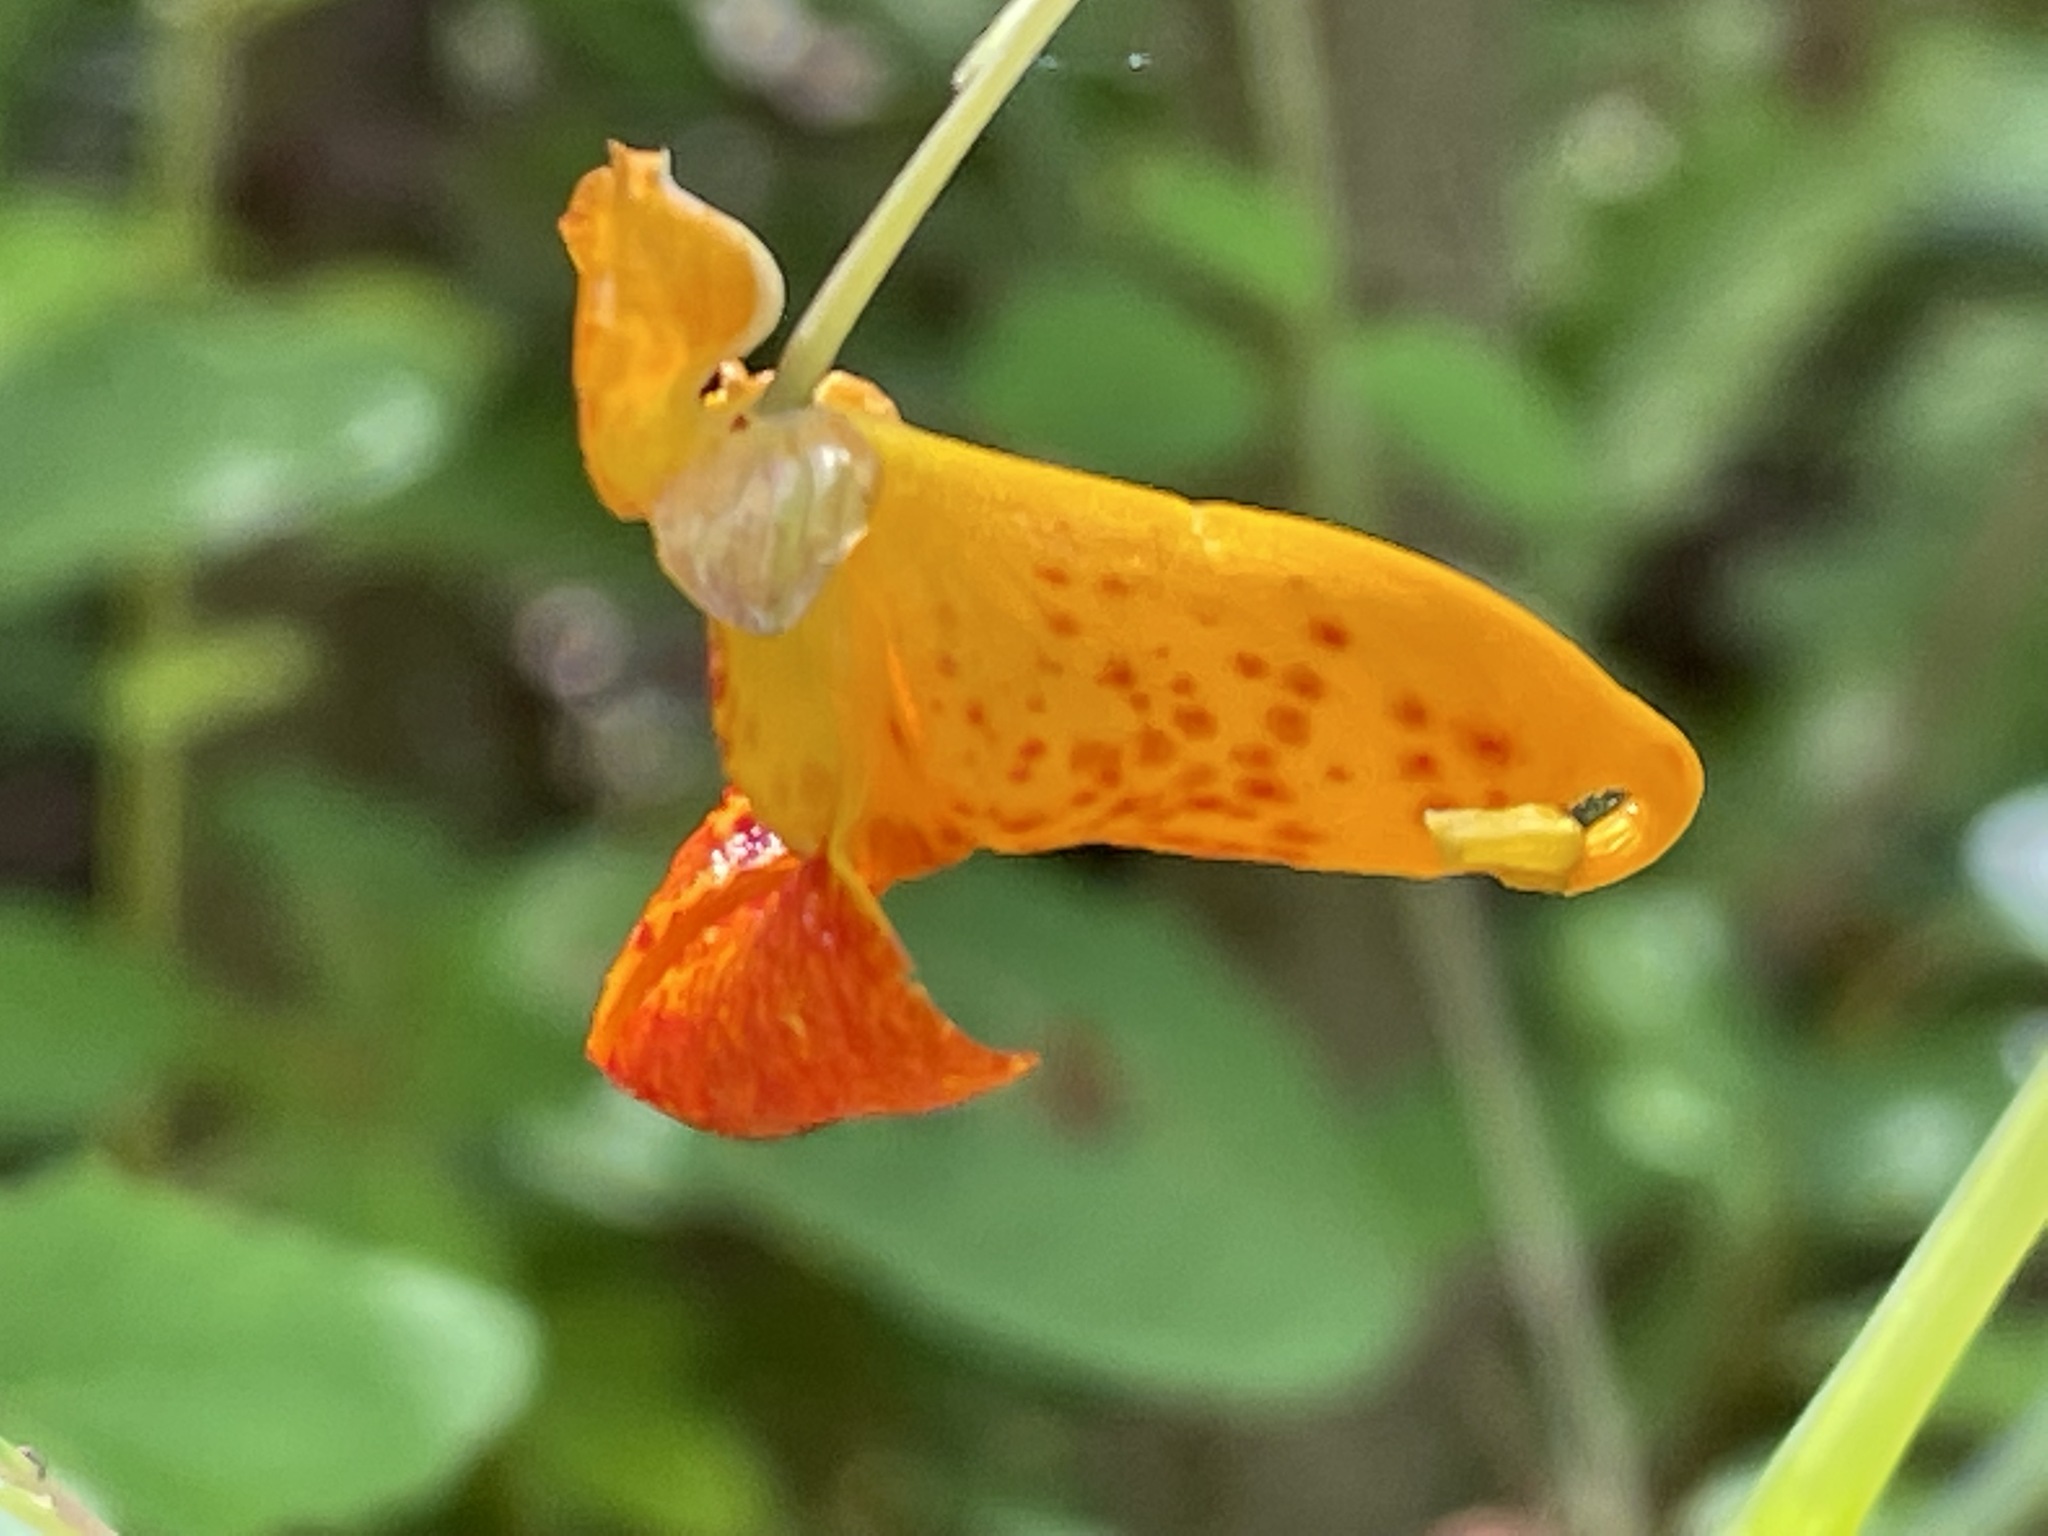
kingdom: Plantae
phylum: Tracheophyta
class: Magnoliopsida
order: Ericales
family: Balsaminaceae
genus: Impatiens
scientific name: Impatiens capensis
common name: Orange balsam
